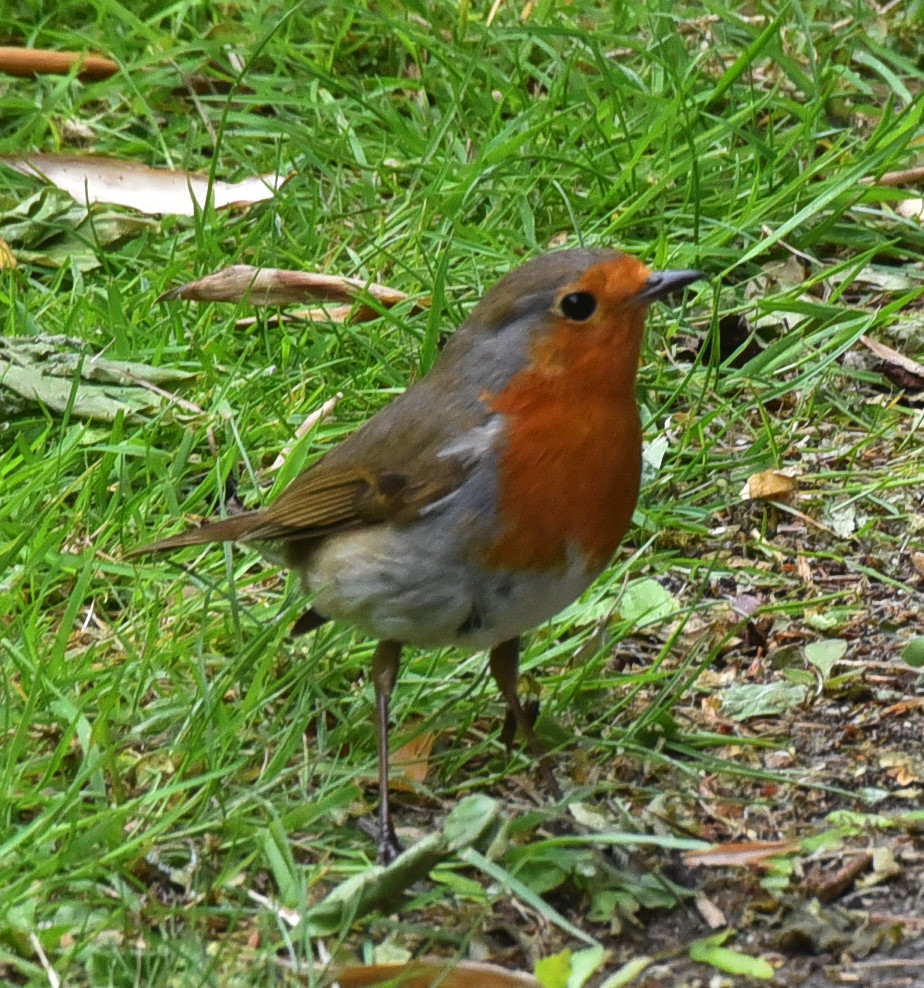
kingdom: Animalia
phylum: Chordata
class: Aves
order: Passeriformes
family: Muscicapidae
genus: Erithacus
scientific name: Erithacus rubecula
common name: European robin
